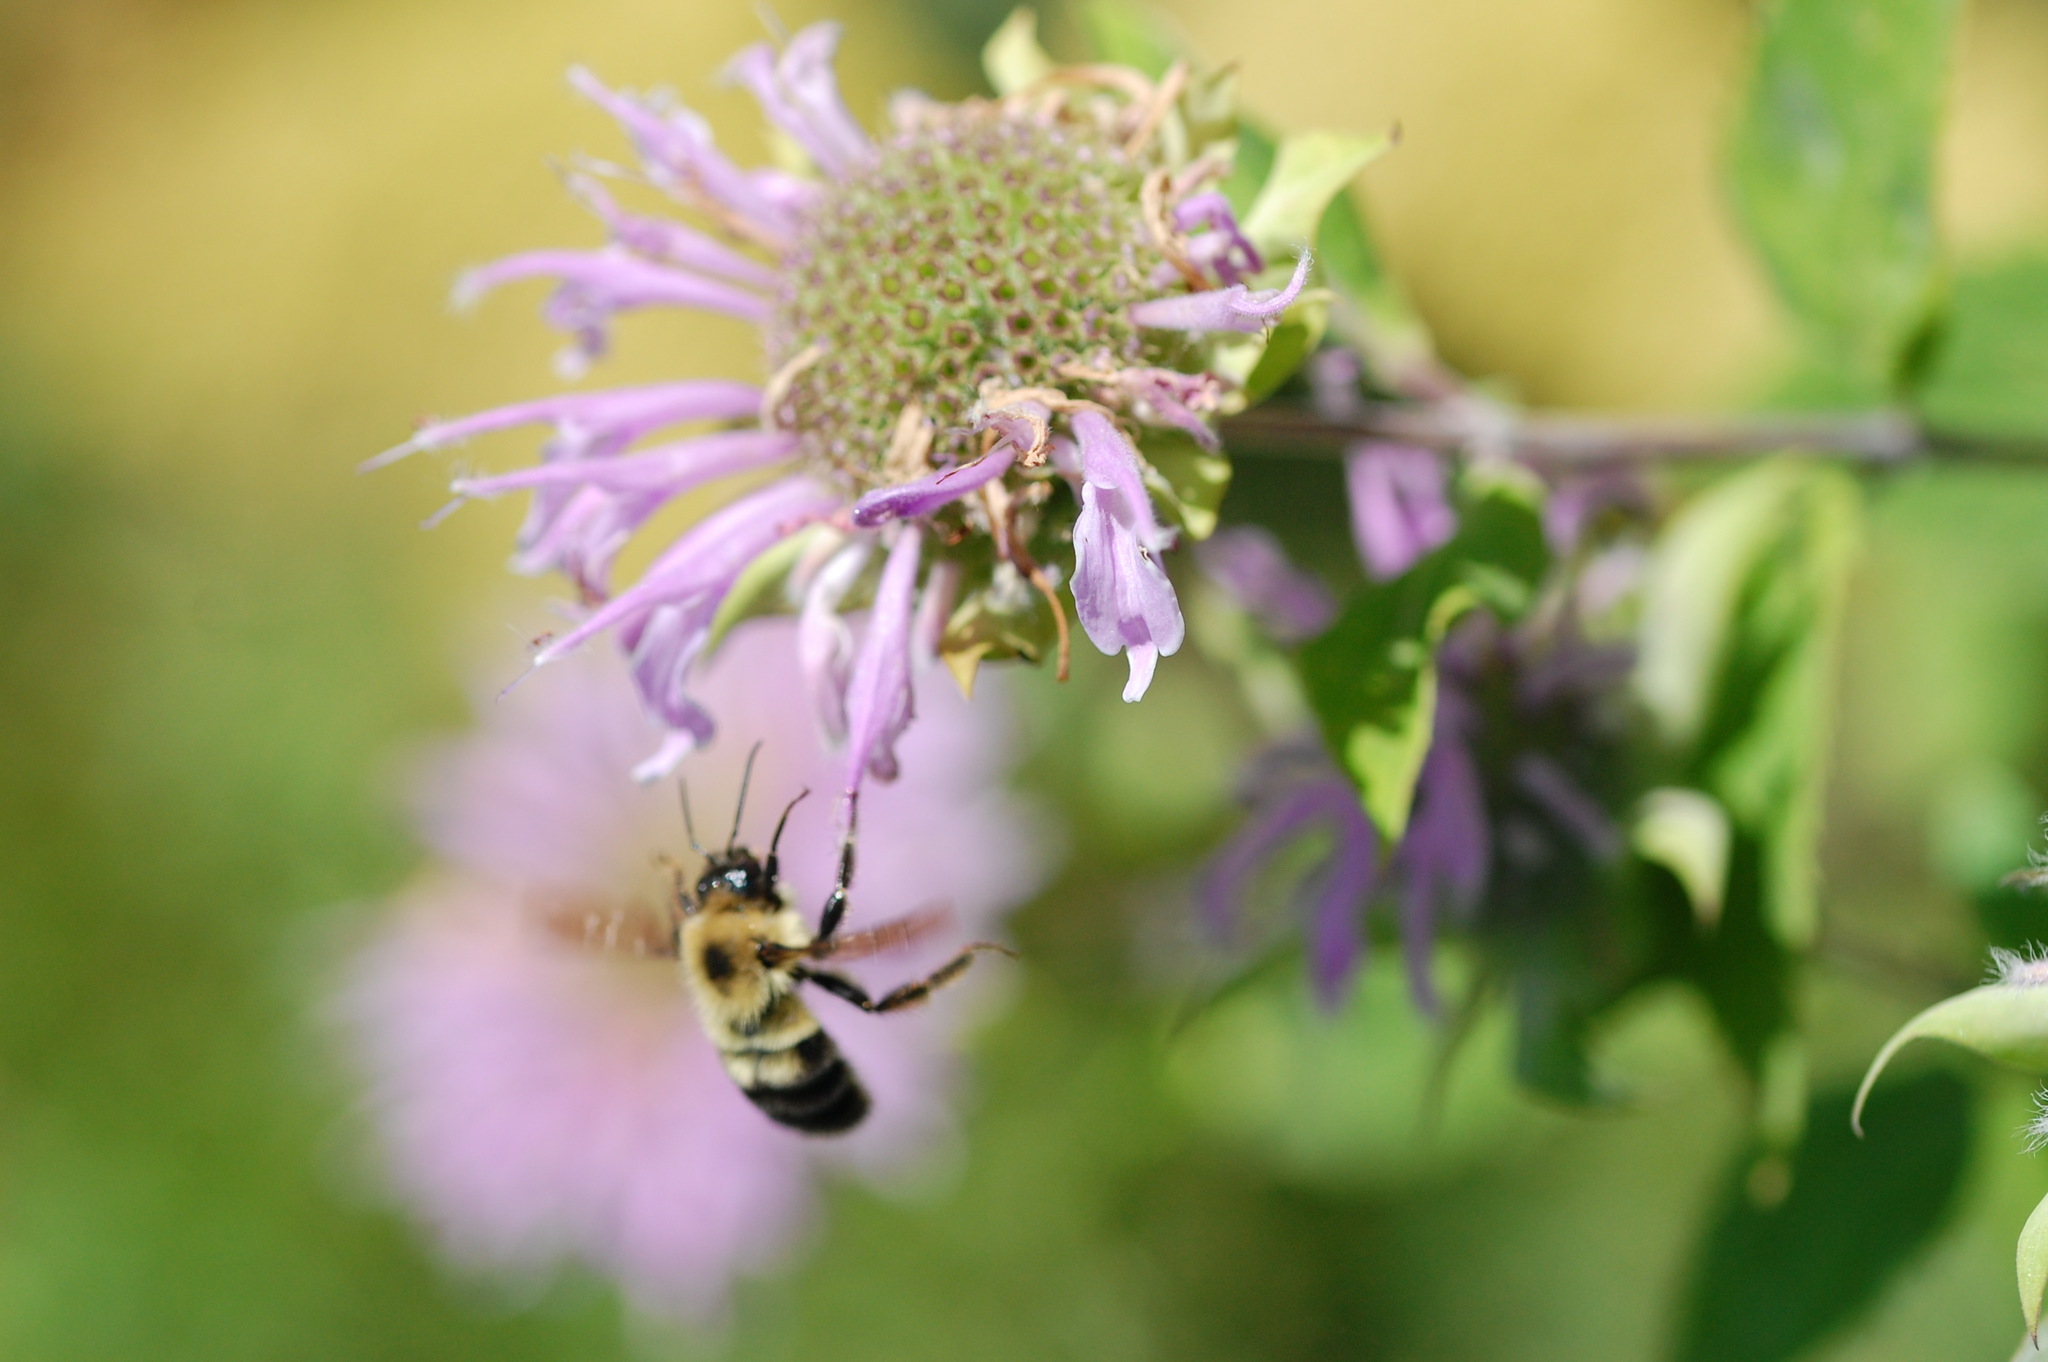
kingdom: Animalia
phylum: Arthropoda
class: Insecta
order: Hymenoptera
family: Apidae
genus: Bombus
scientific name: Bombus bimaculatus
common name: Two-spotted bumble bee
